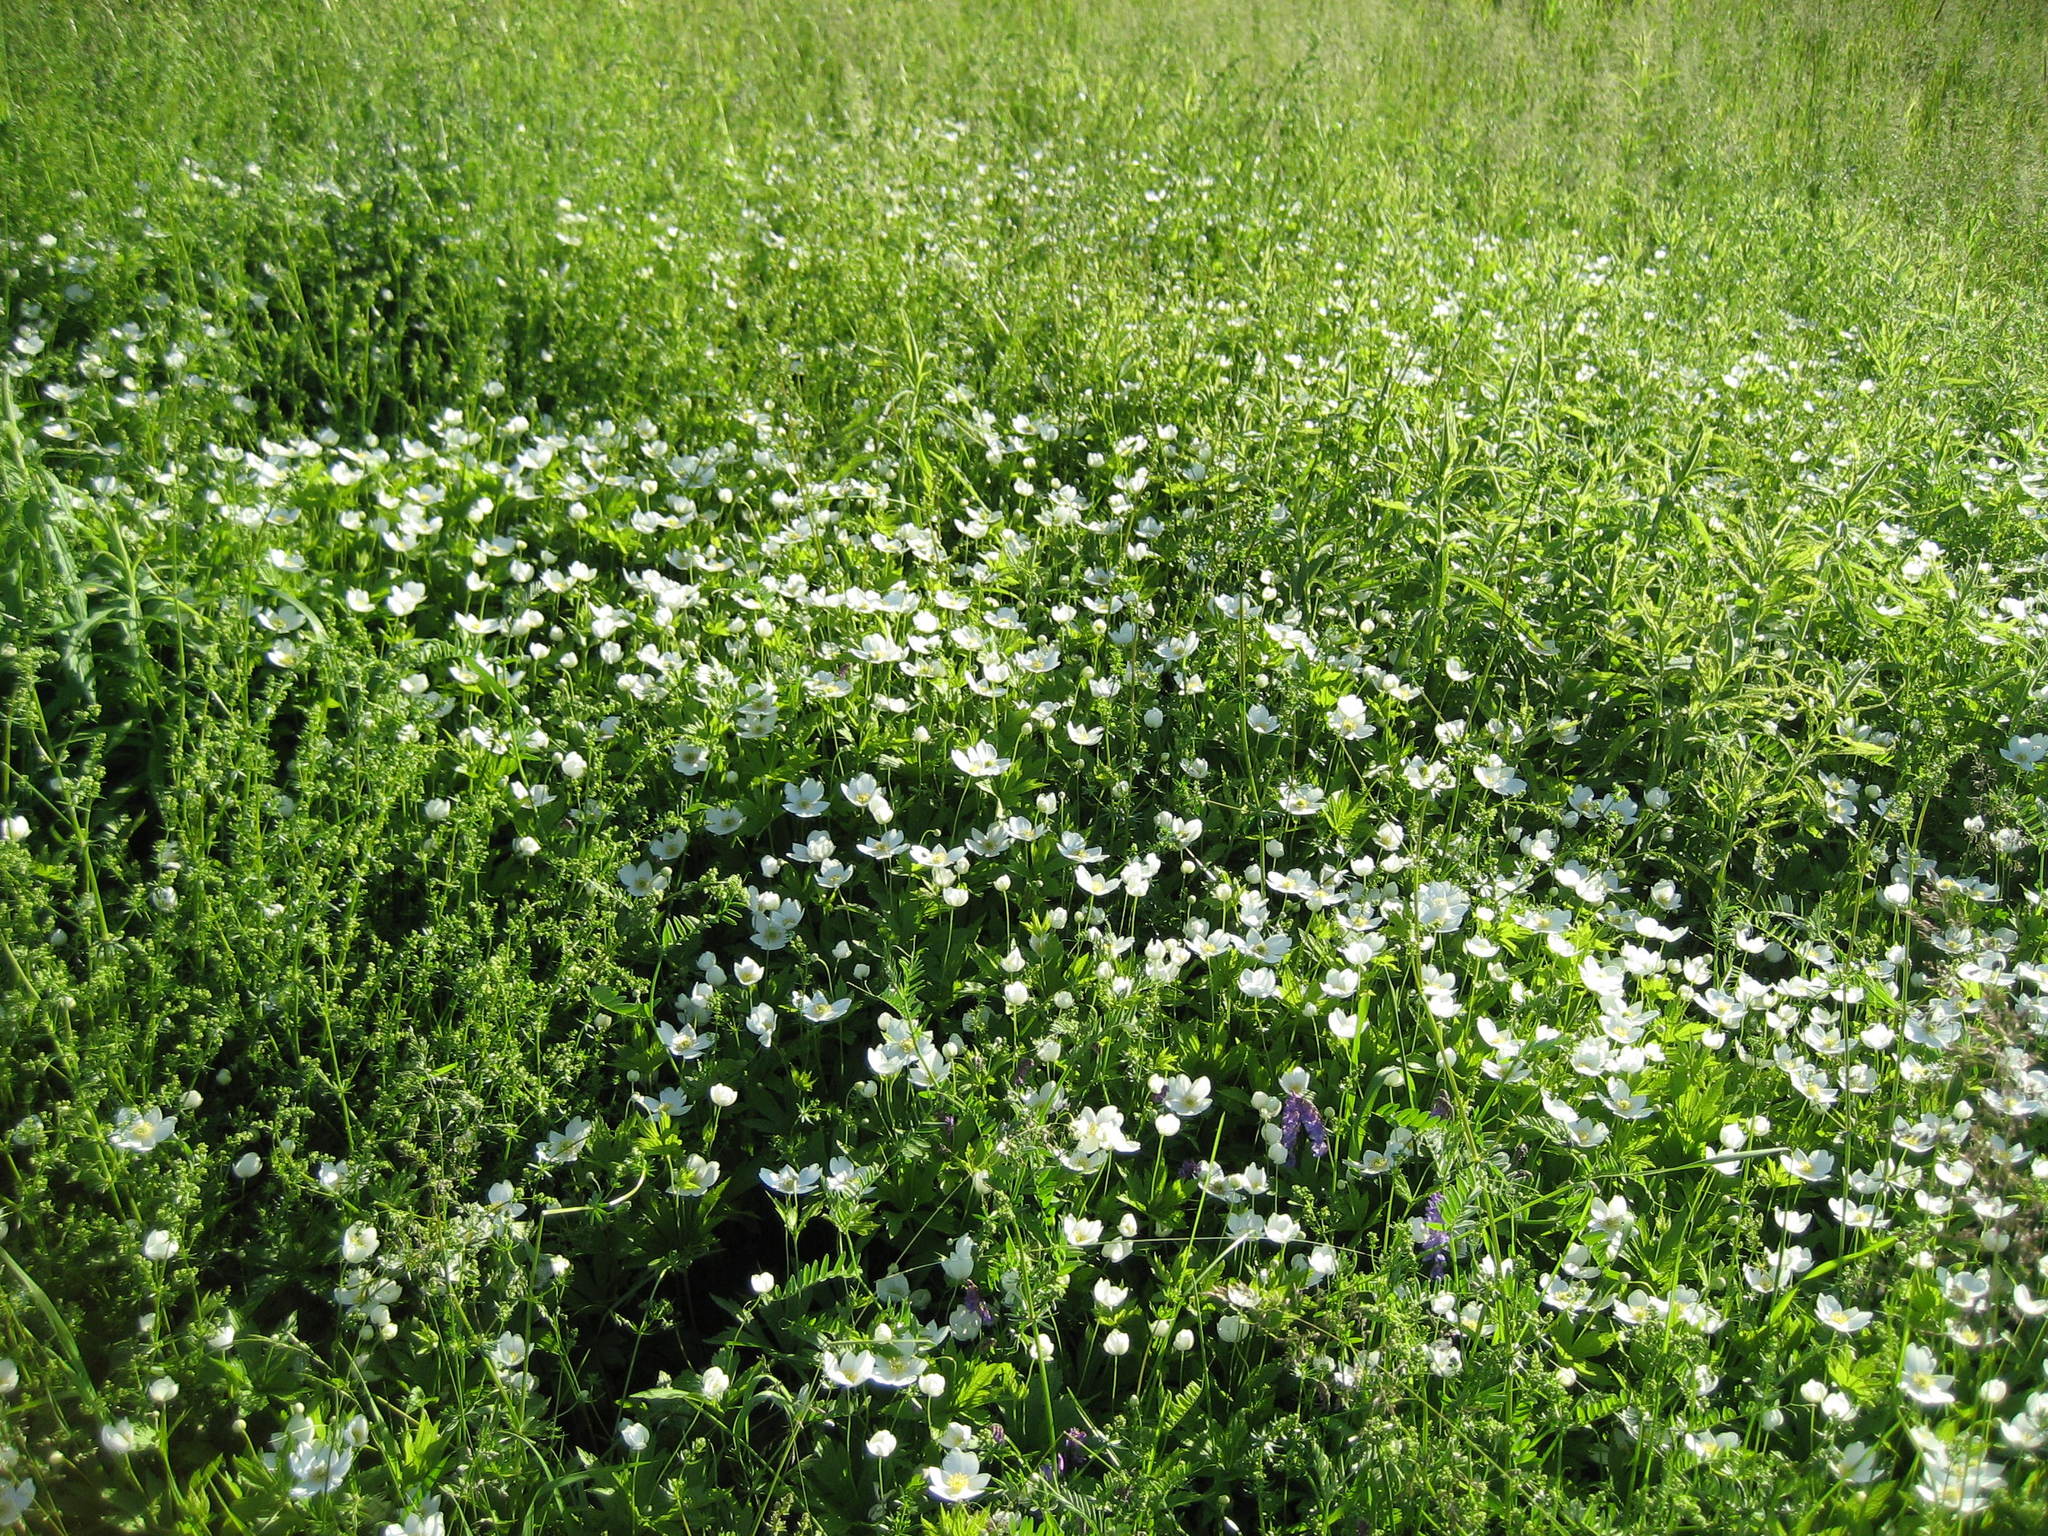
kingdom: Plantae
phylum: Tracheophyta
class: Magnoliopsida
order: Ranunculales
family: Ranunculaceae
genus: Anemonastrum
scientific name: Anemonastrum canadense
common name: Canada anemone
